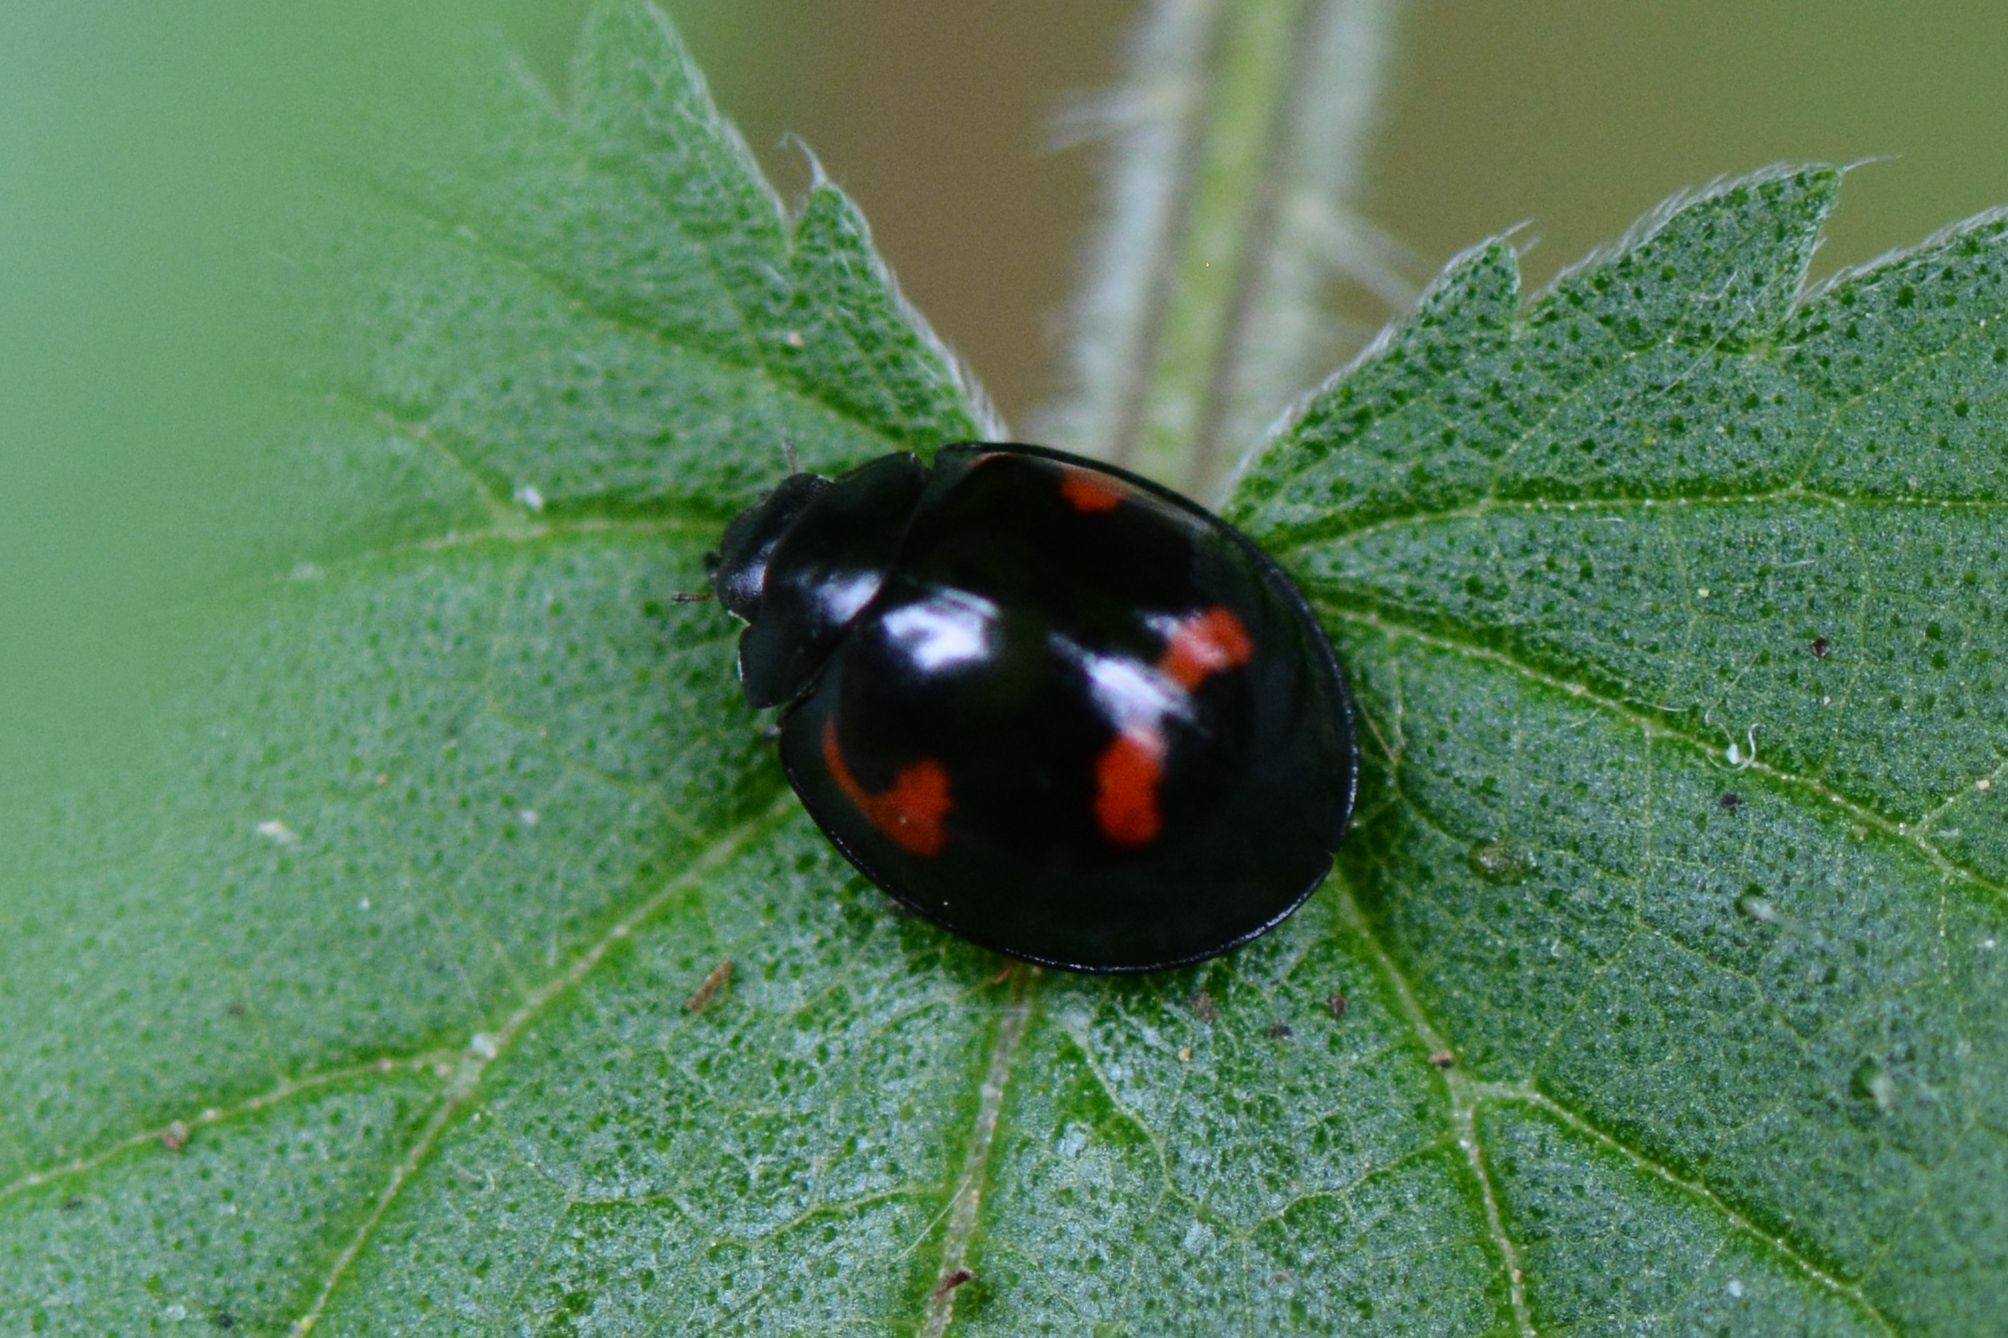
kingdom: Animalia
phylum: Arthropoda
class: Insecta
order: Coleoptera
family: Coccinellidae
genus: Brumus
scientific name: Brumus quadripustulatus
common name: Ladybird beetle
